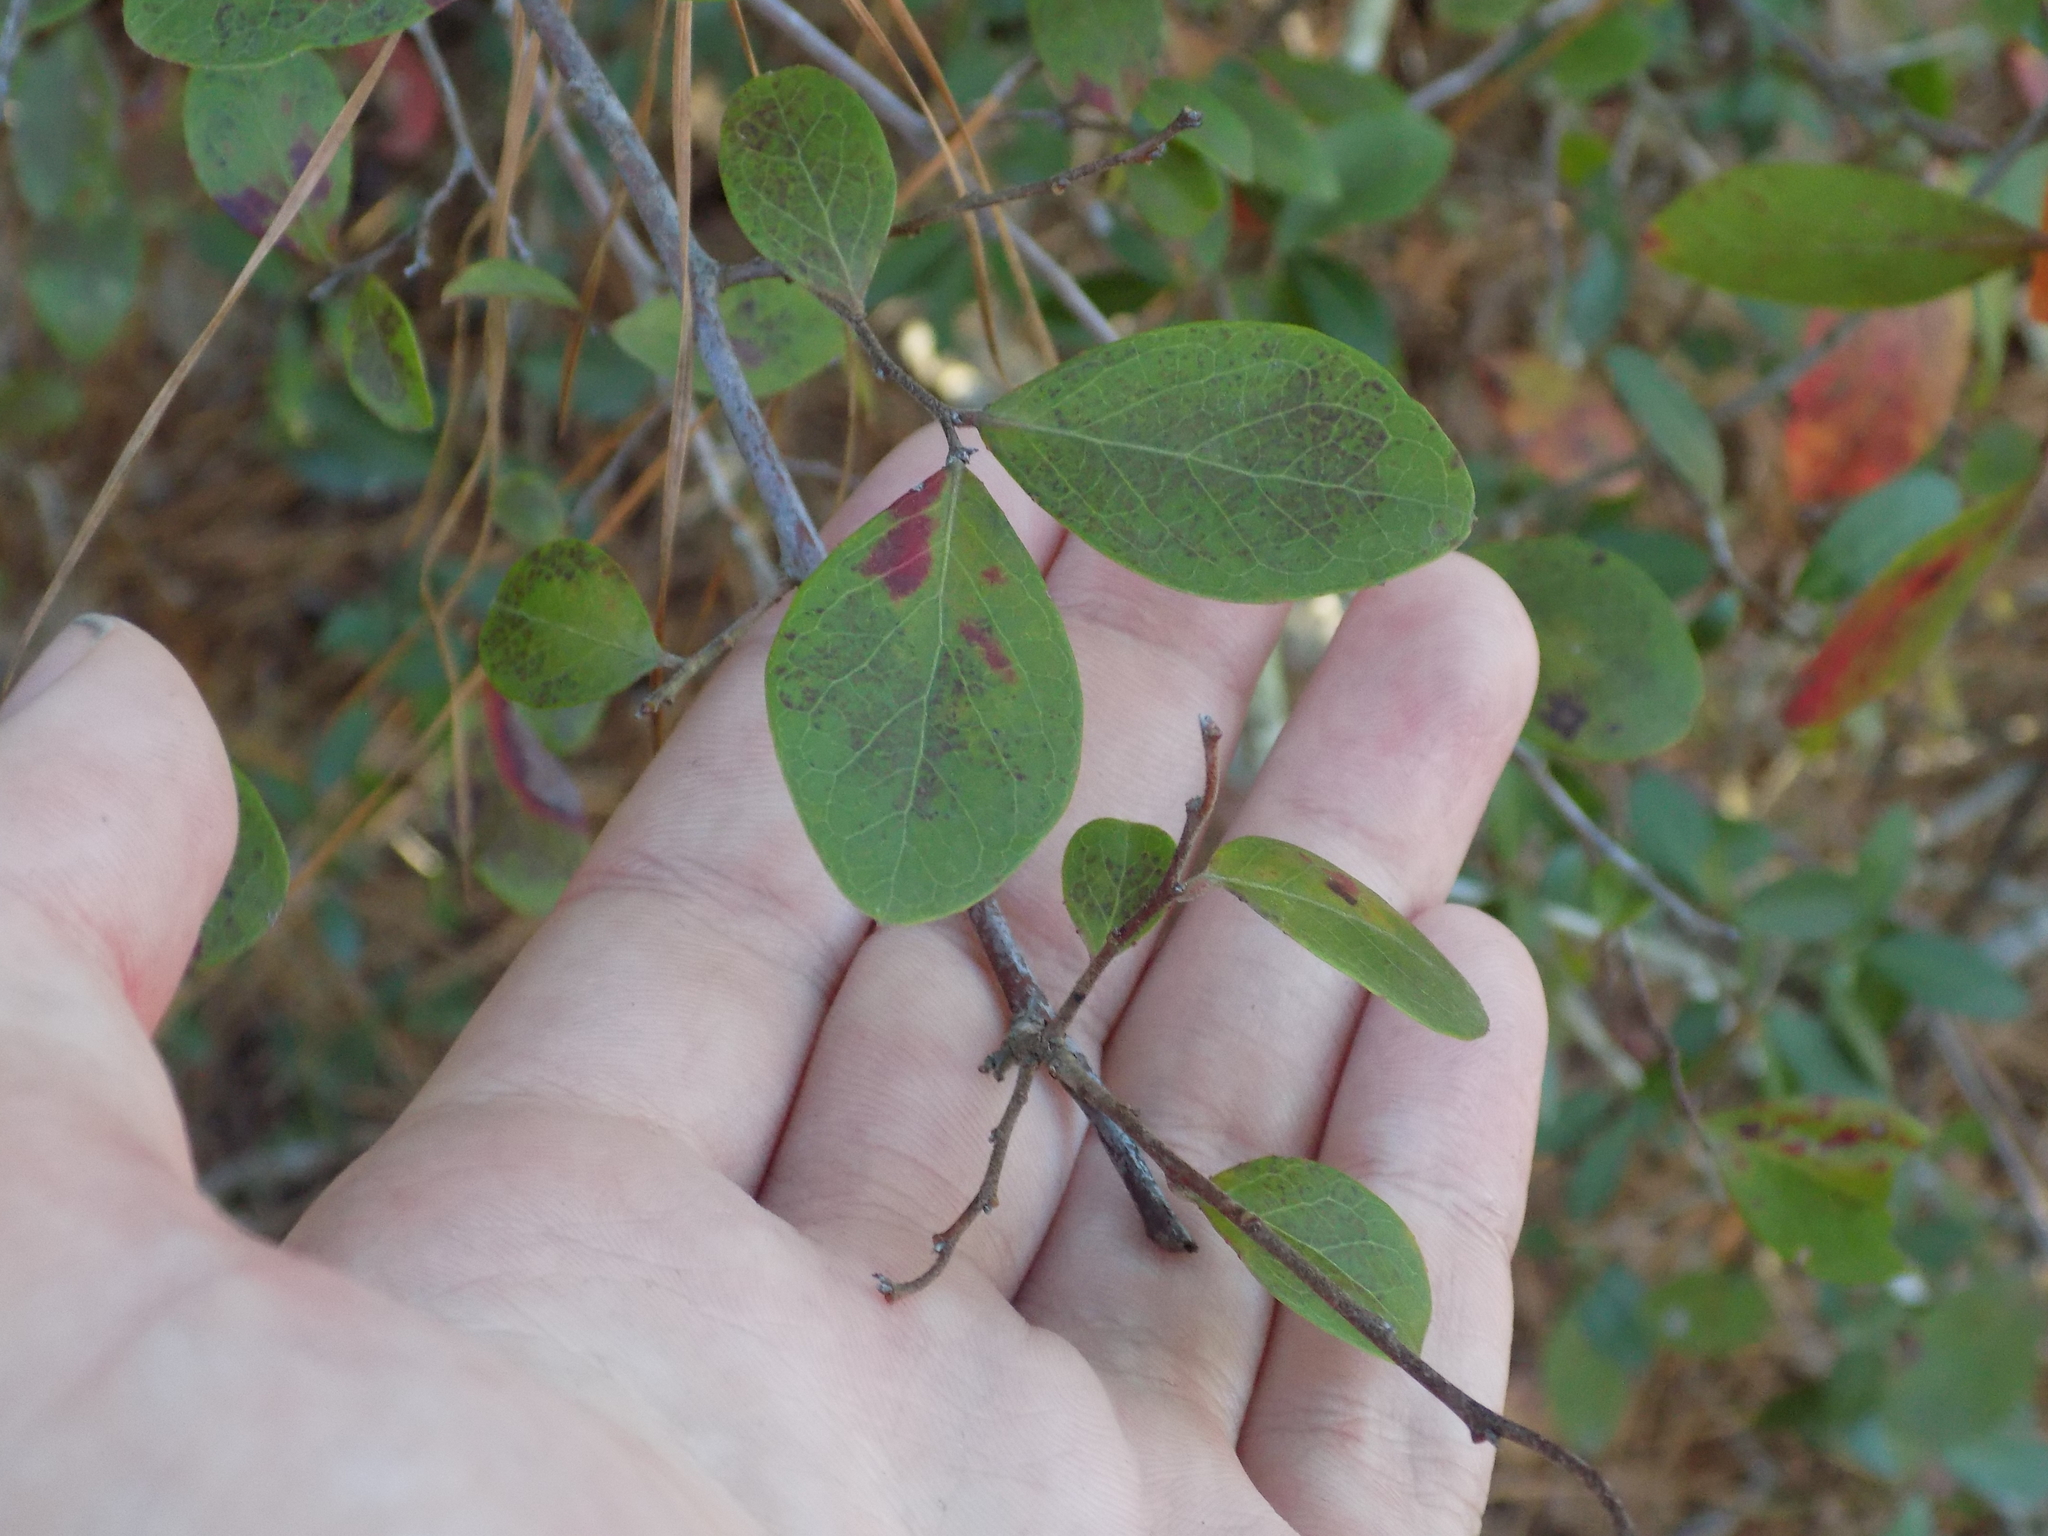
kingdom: Plantae
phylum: Tracheophyta
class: Magnoliopsida
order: Ericales
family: Ericaceae
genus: Vaccinium
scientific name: Vaccinium arboreum
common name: Farkleberry
